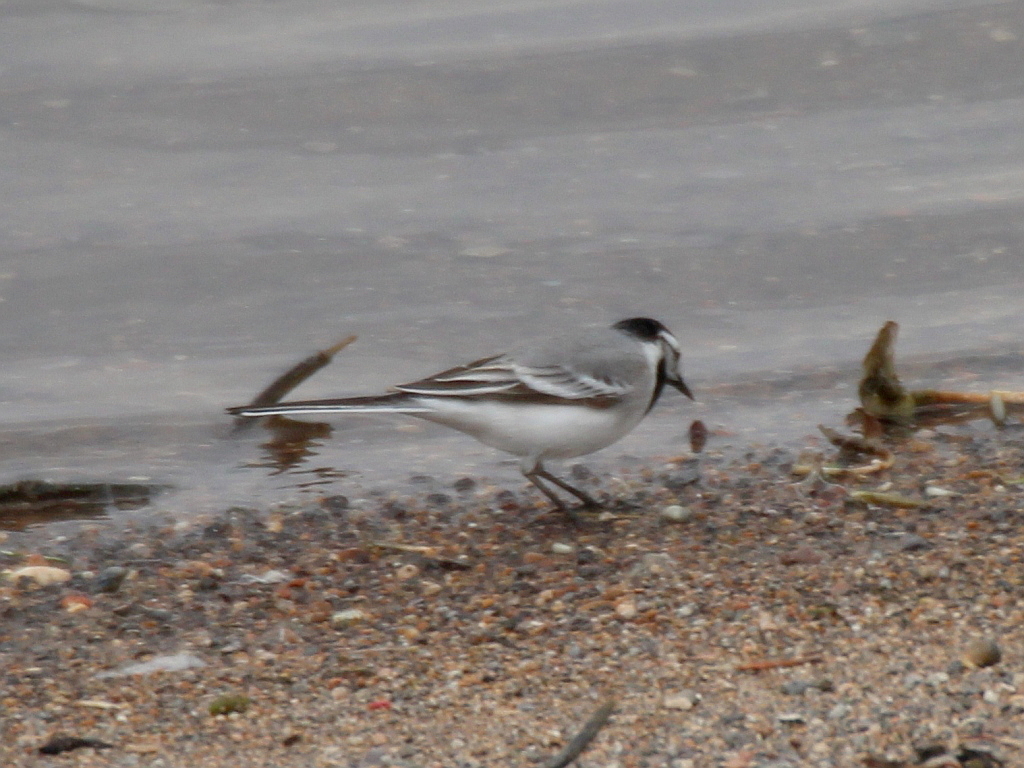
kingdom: Animalia
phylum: Chordata
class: Aves
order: Passeriformes
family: Motacillidae
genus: Motacilla
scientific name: Motacilla alba
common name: White wagtail
